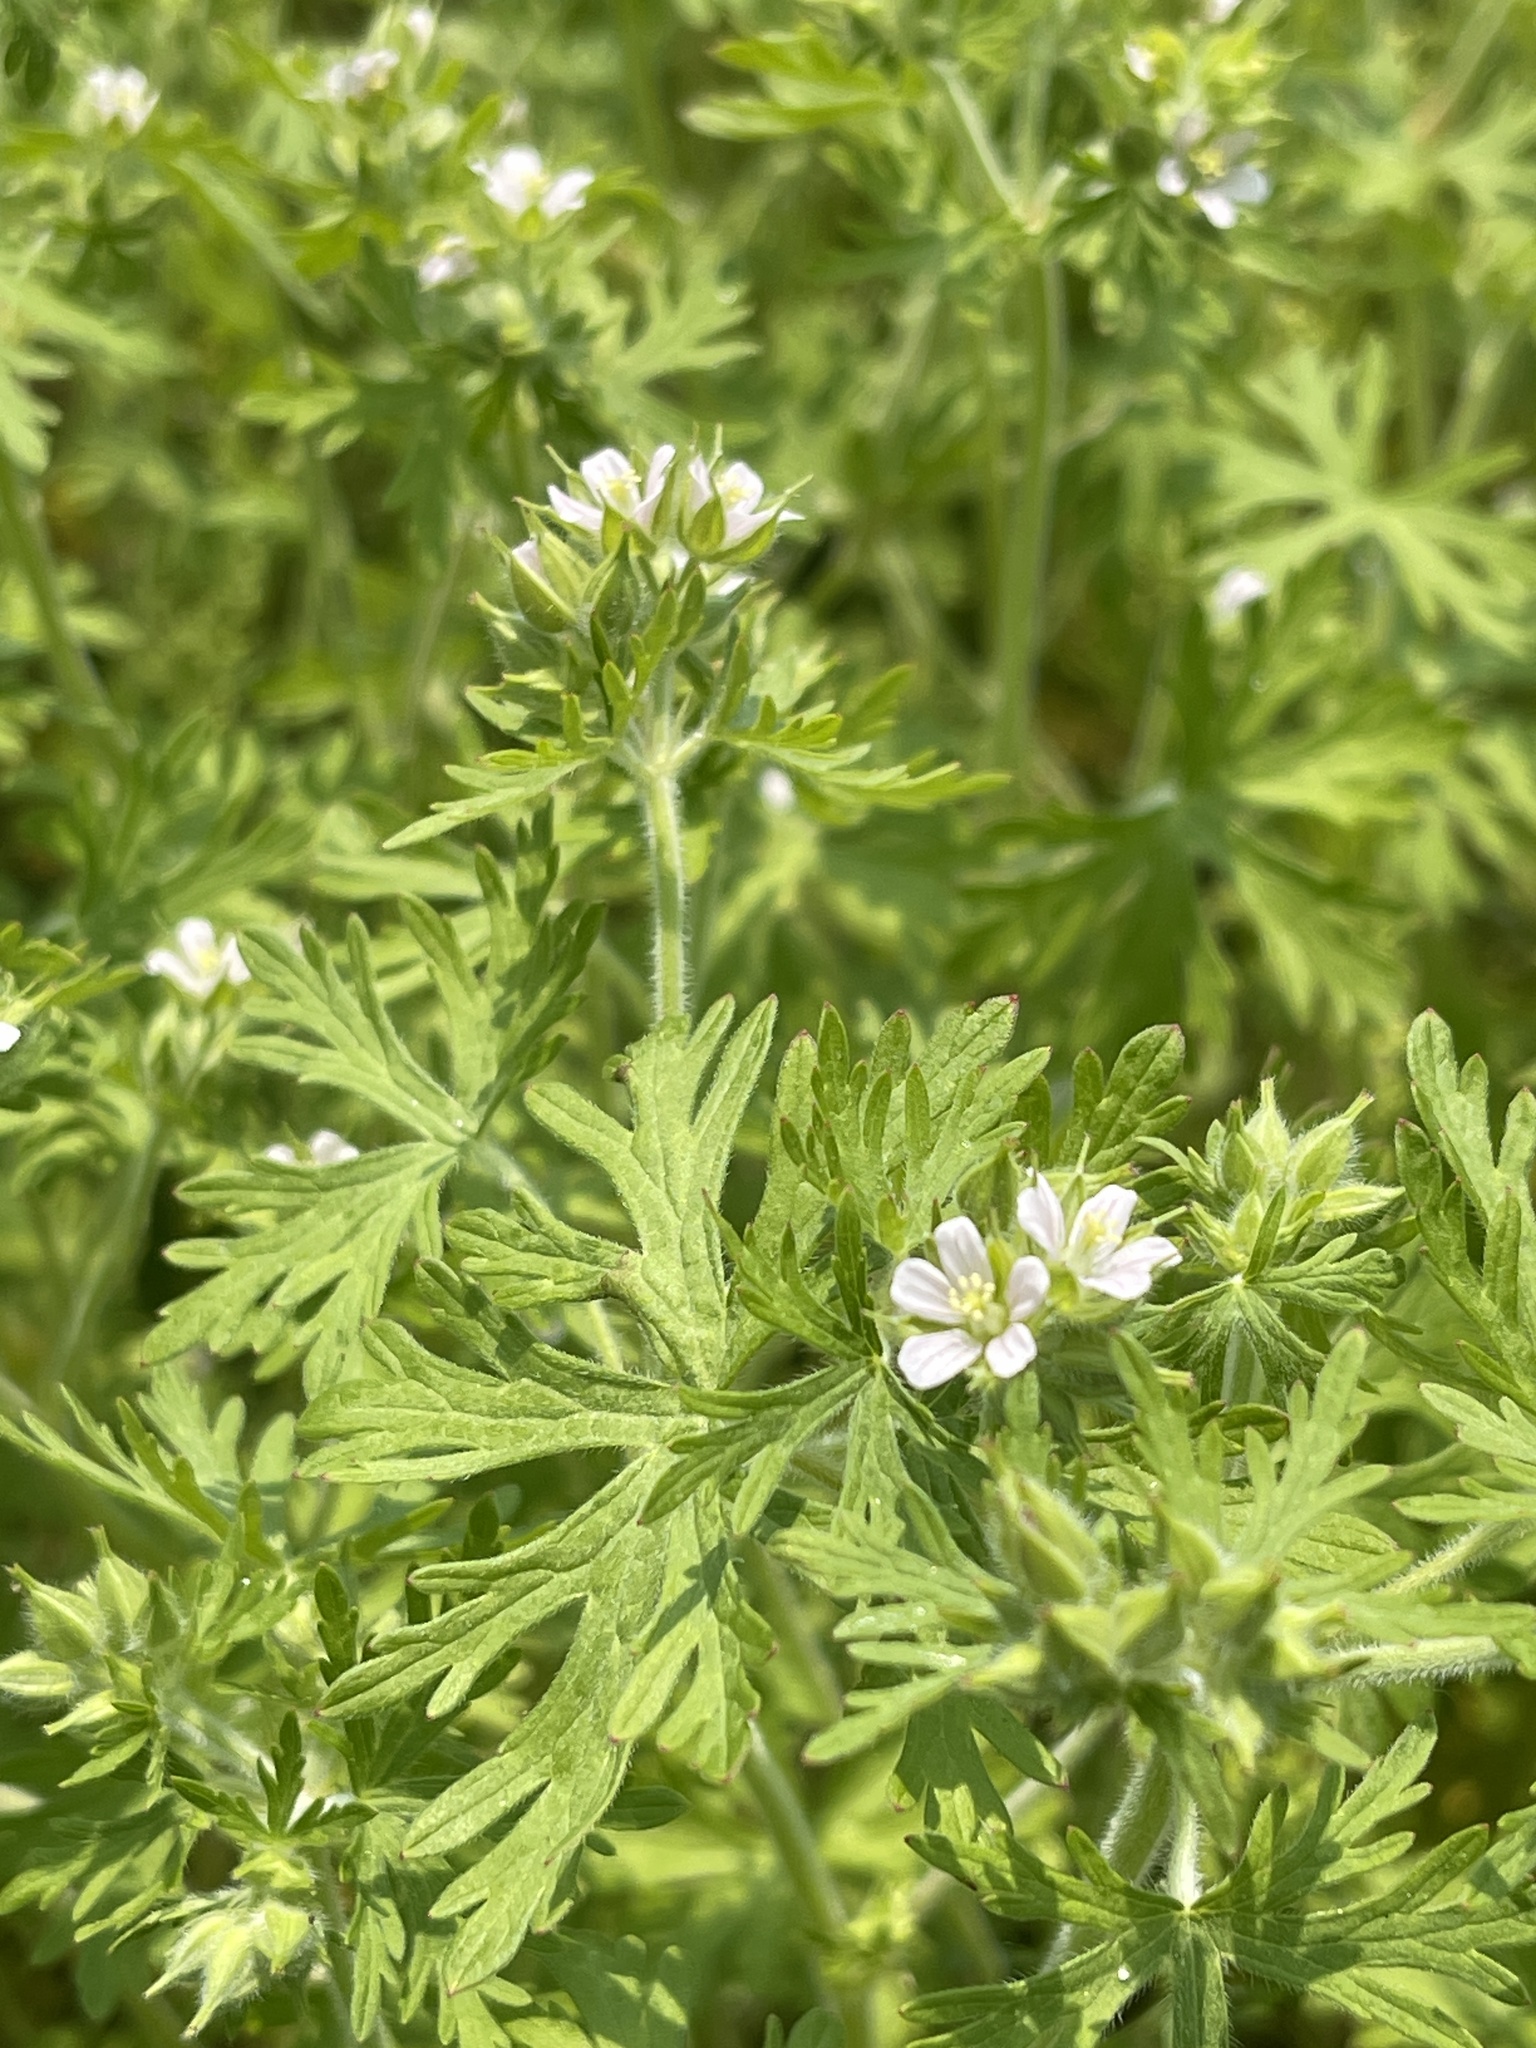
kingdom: Plantae
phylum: Tracheophyta
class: Magnoliopsida
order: Geraniales
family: Geraniaceae
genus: Geranium
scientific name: Geranium carolinianum
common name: Carolina crane's-bill
